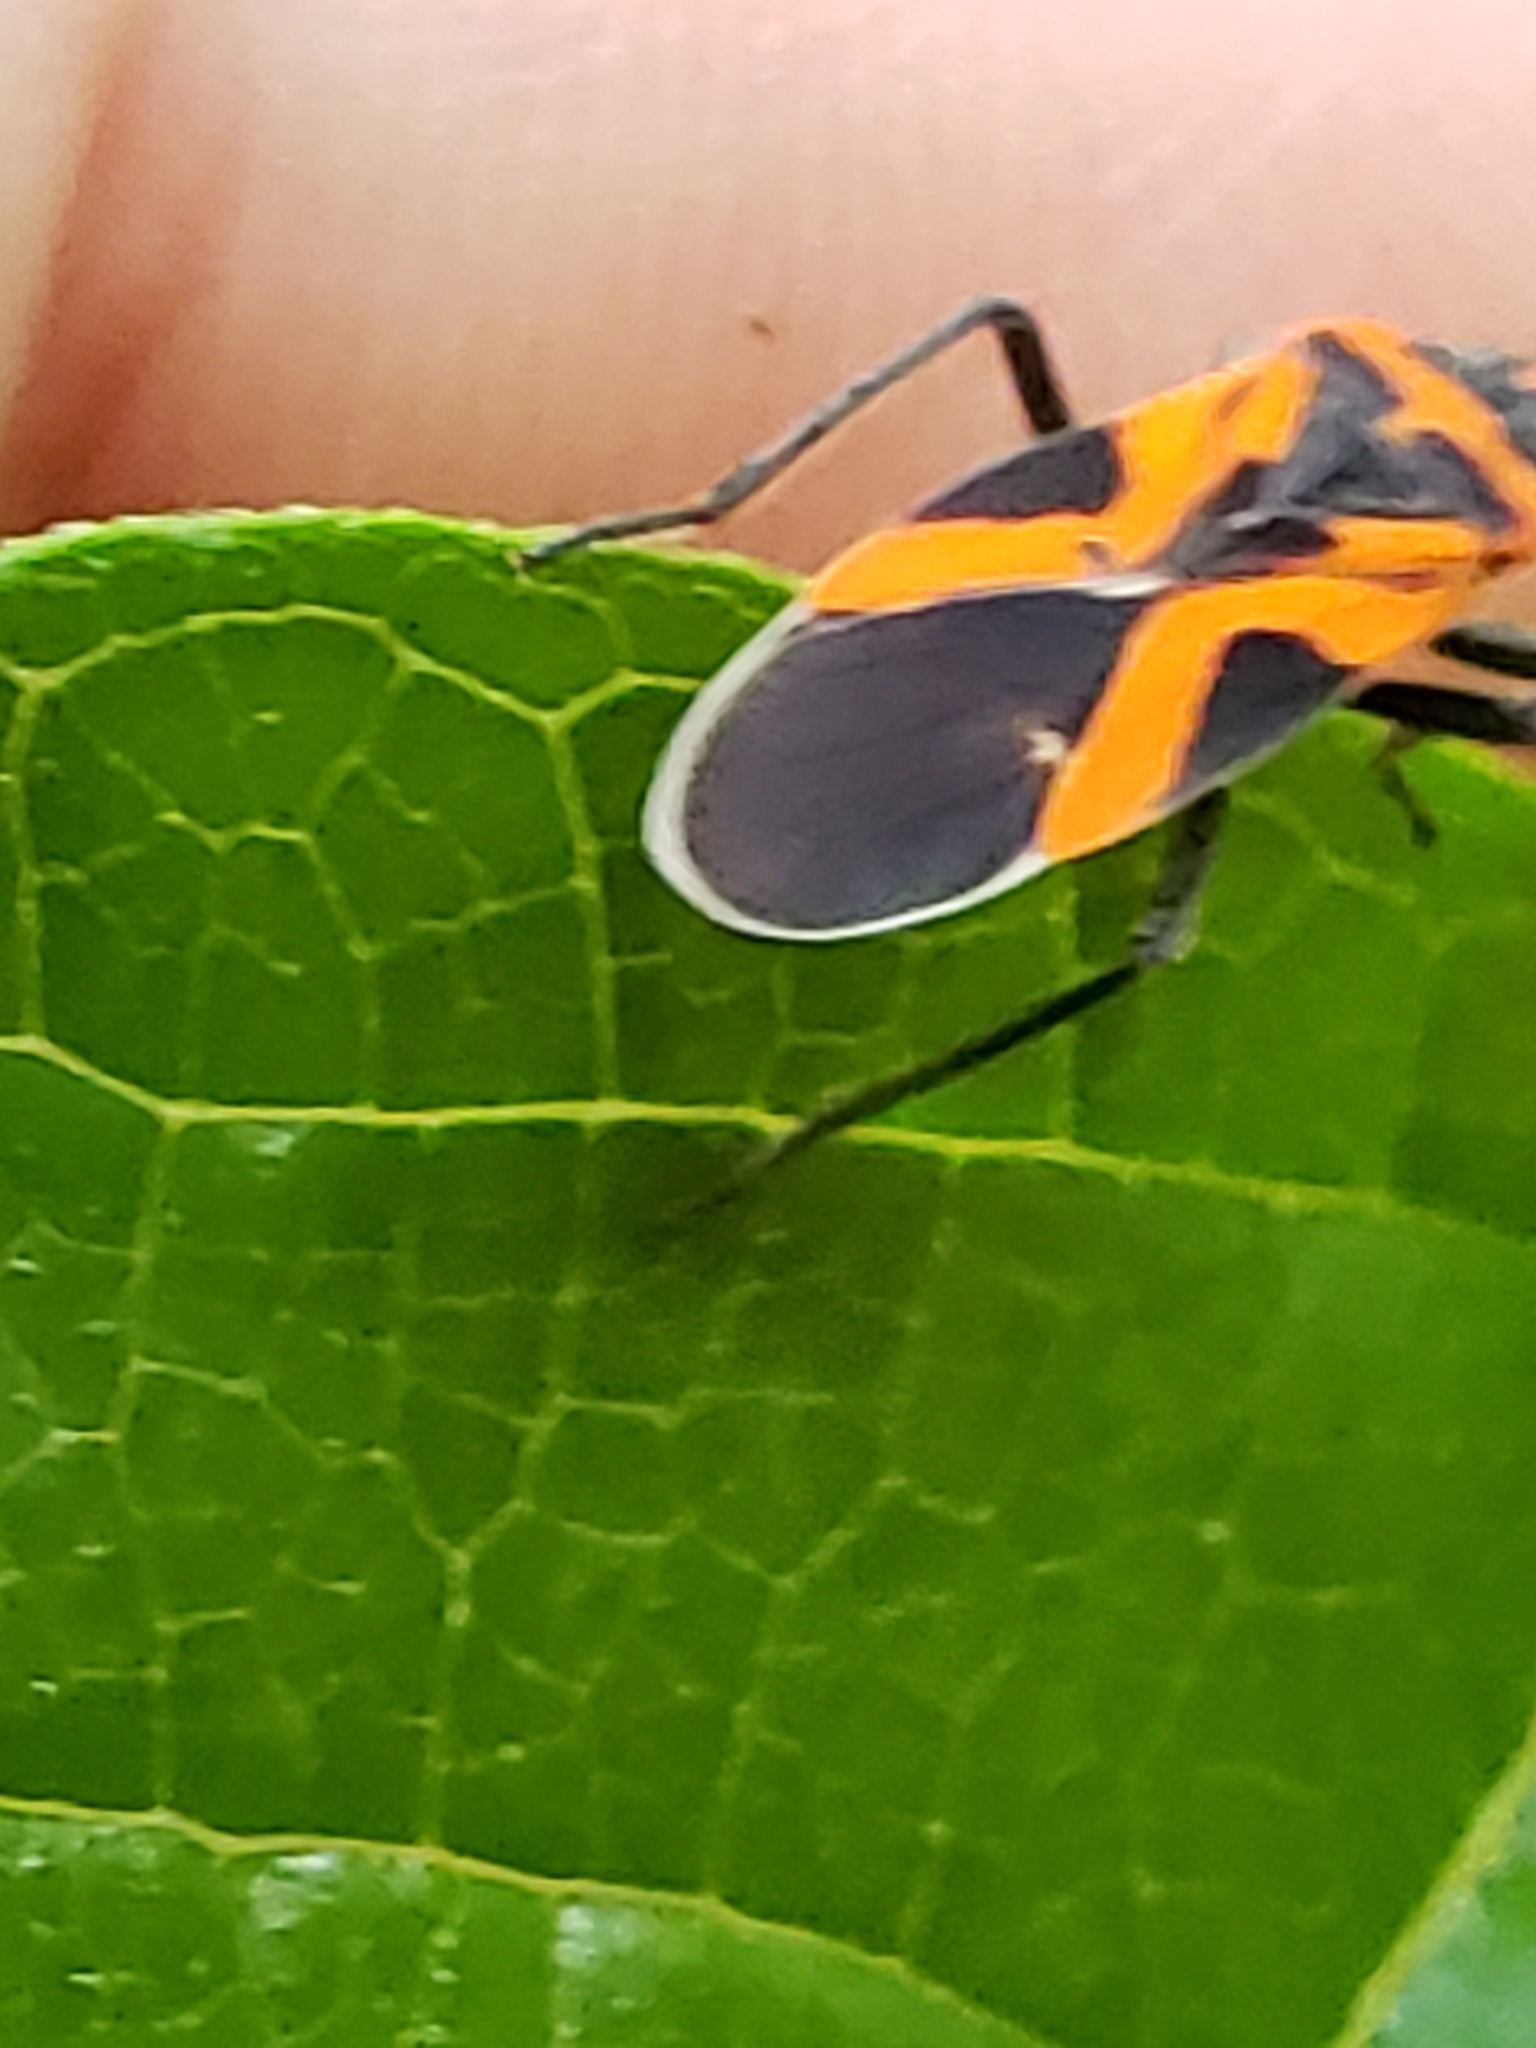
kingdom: Animalia
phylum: Arthropoda
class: Insecta
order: Hemiptera
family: Lygaeidae
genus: Lygaeus
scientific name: Lygaeus turcicus
